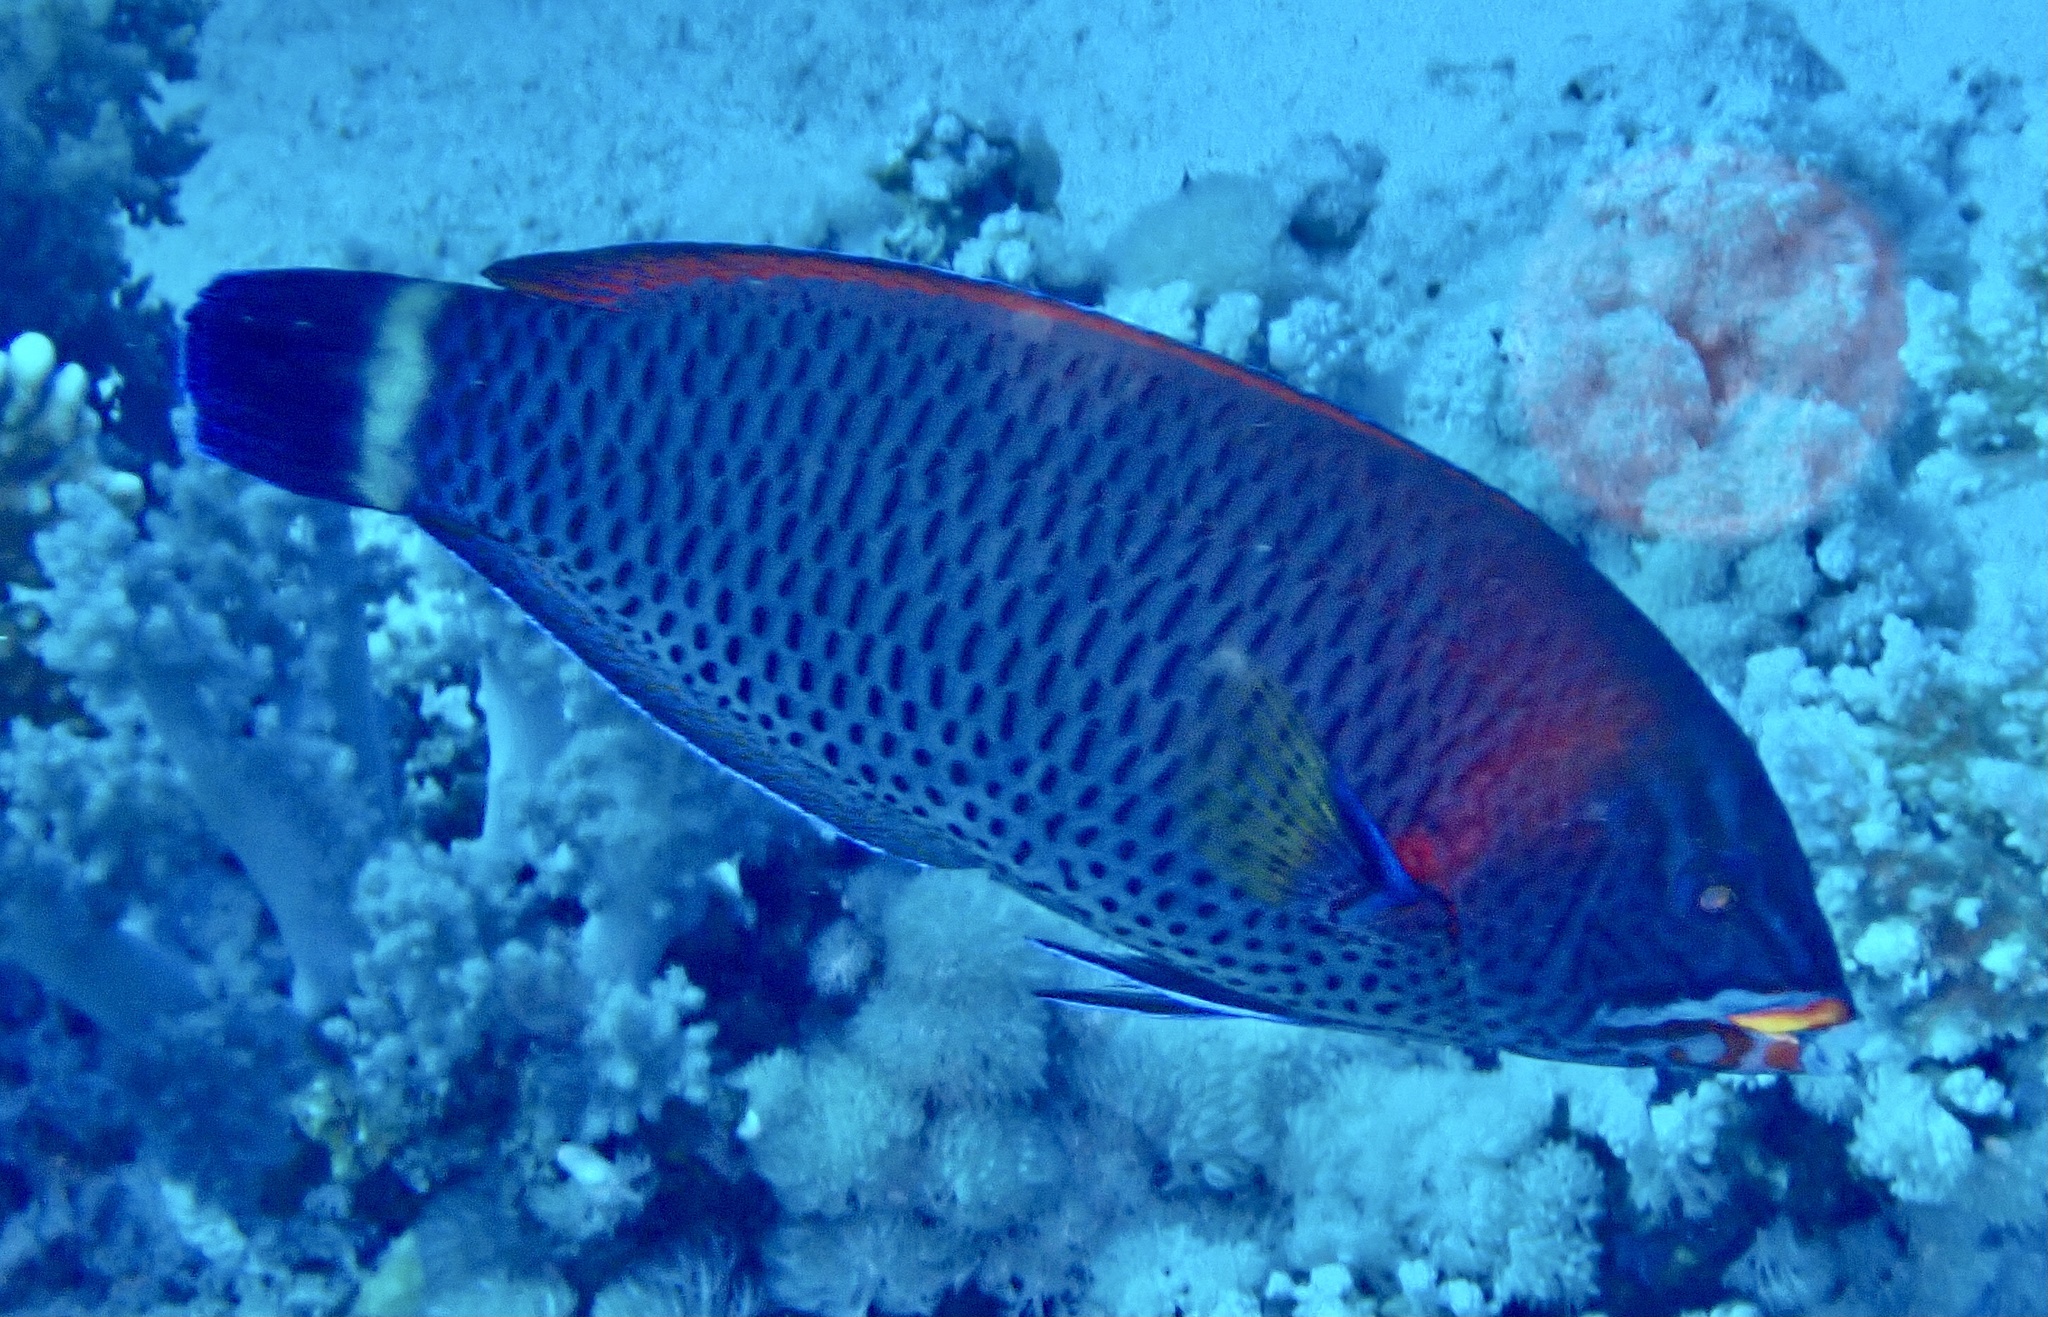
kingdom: Animalia
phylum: Chordata
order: Perciformes
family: Labridae
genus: Pseudodax
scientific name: Pseudodax moluccanus
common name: Chiseltooth wrasse
